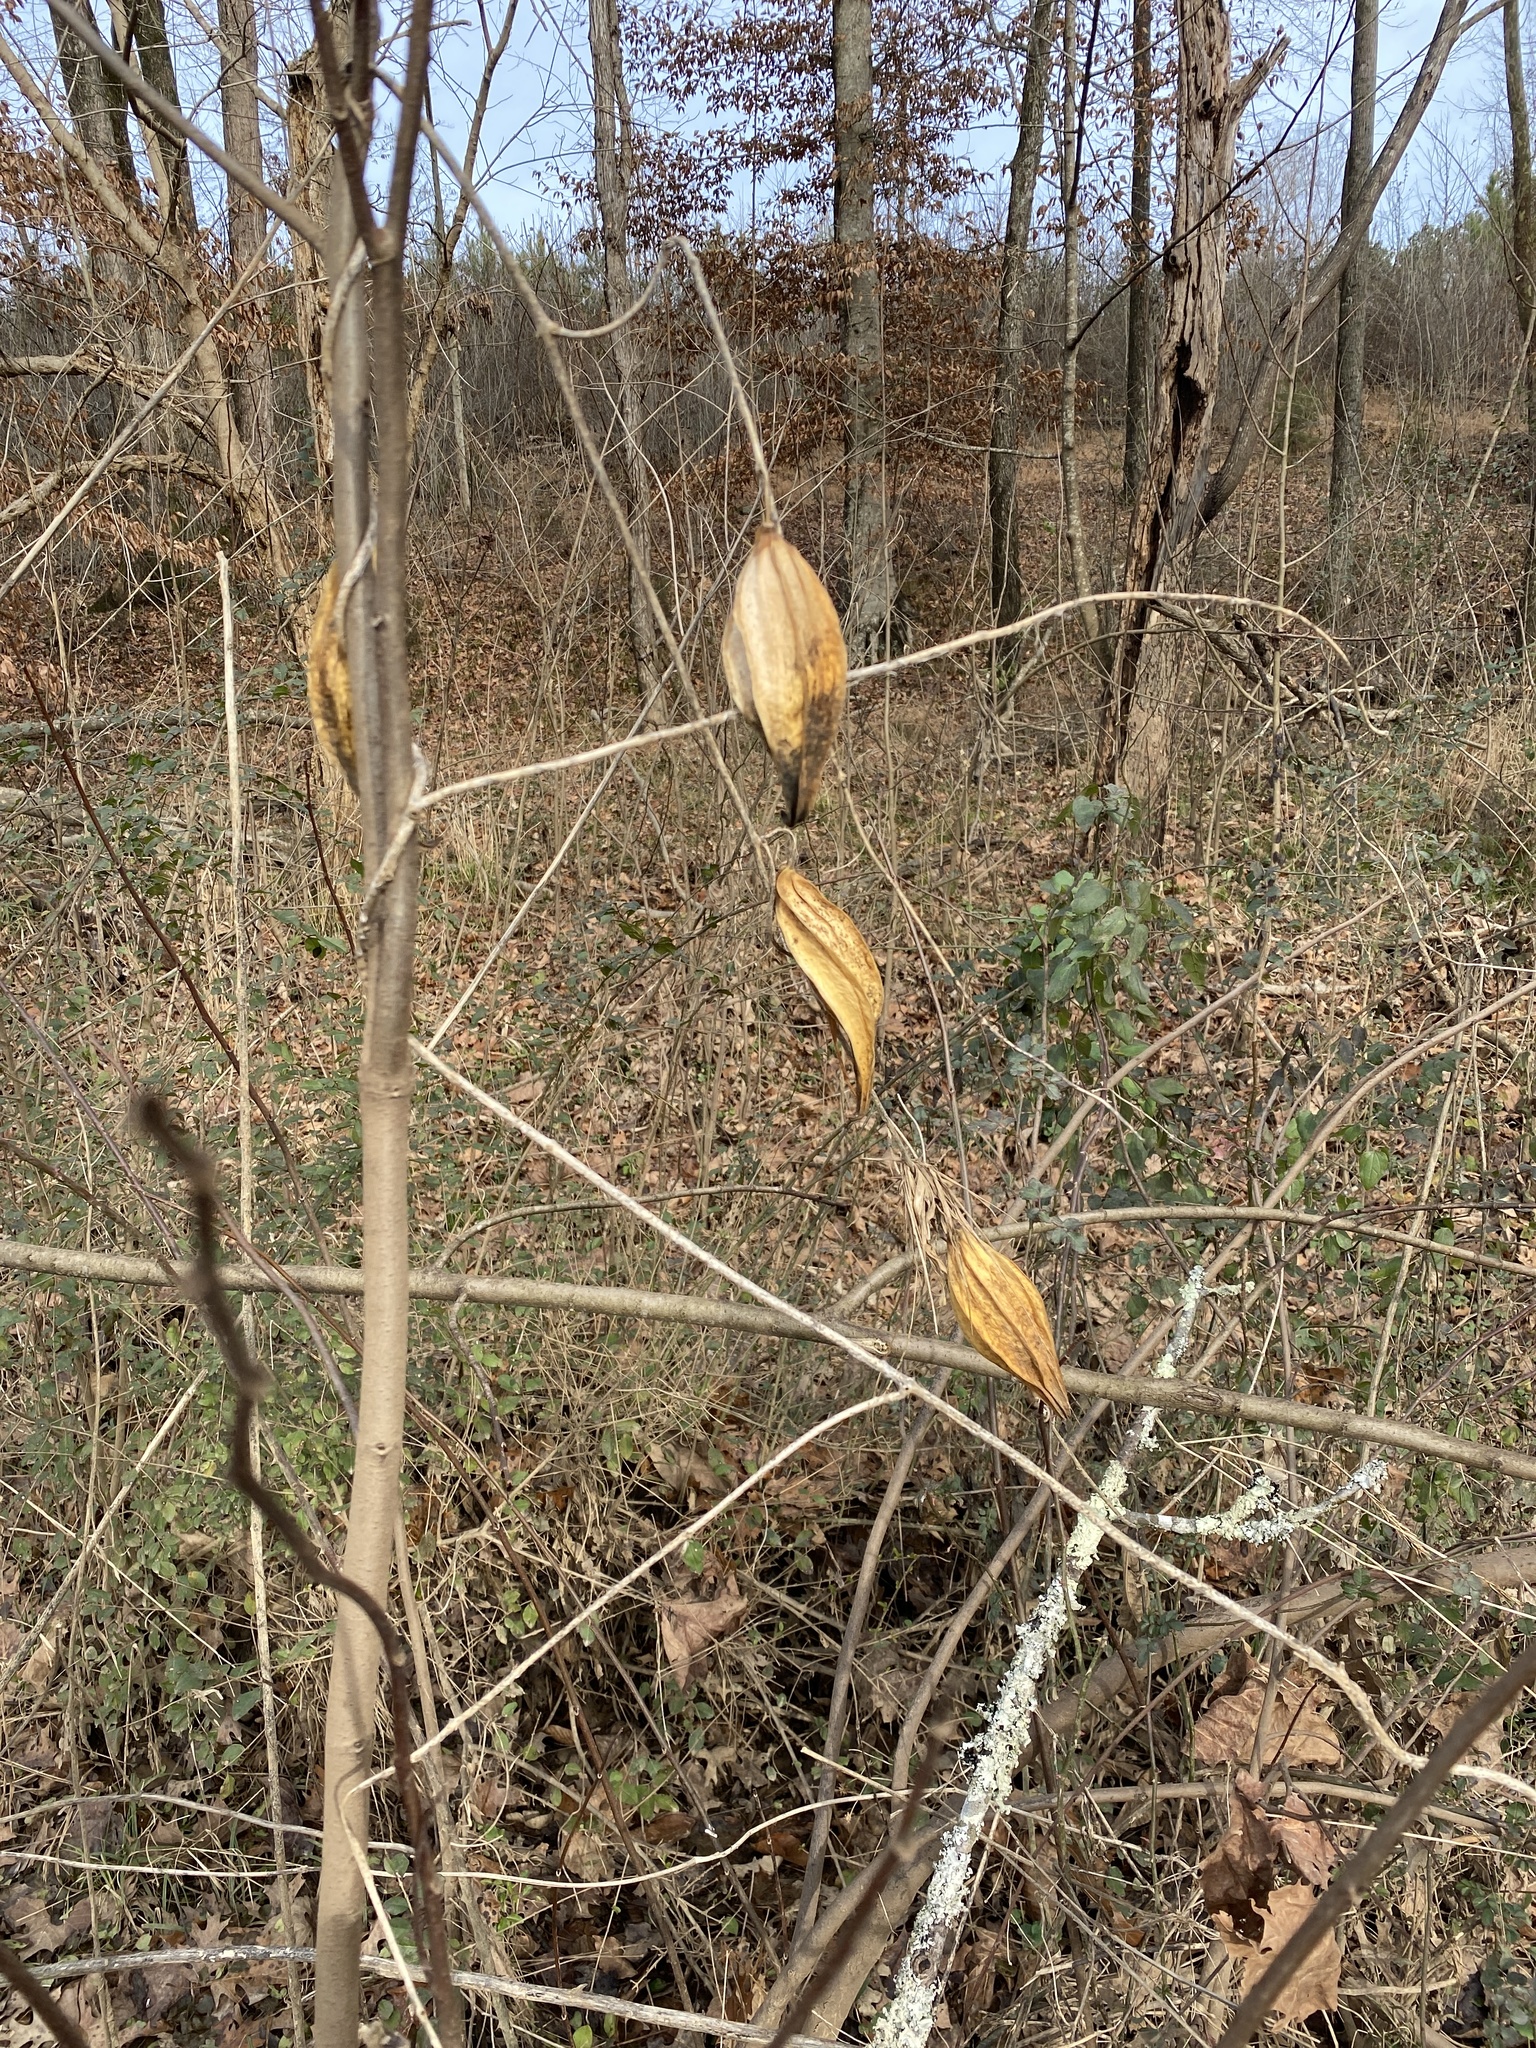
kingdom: Plantae
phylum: Tracheophyta
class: Magnoliopsida
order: Gentianales
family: Apocynaceae
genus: Gonolobus
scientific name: Gonolobus suberosus
